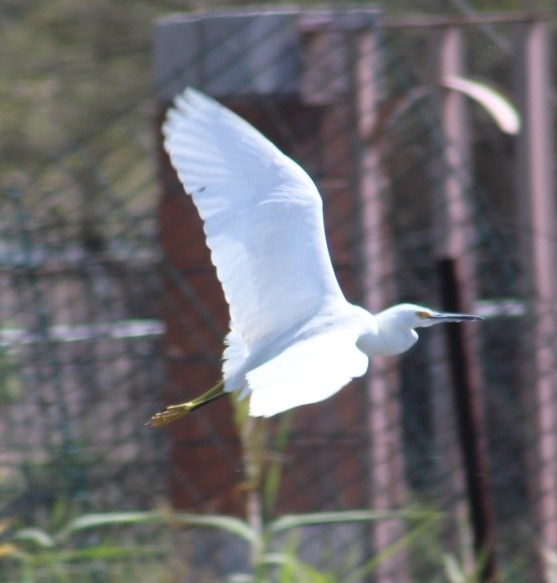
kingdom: Animalia
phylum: Chordata
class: Aves
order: Pelecaniformes
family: Ardeidae
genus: Egretta
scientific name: Egretta thula
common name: Snowy egret
